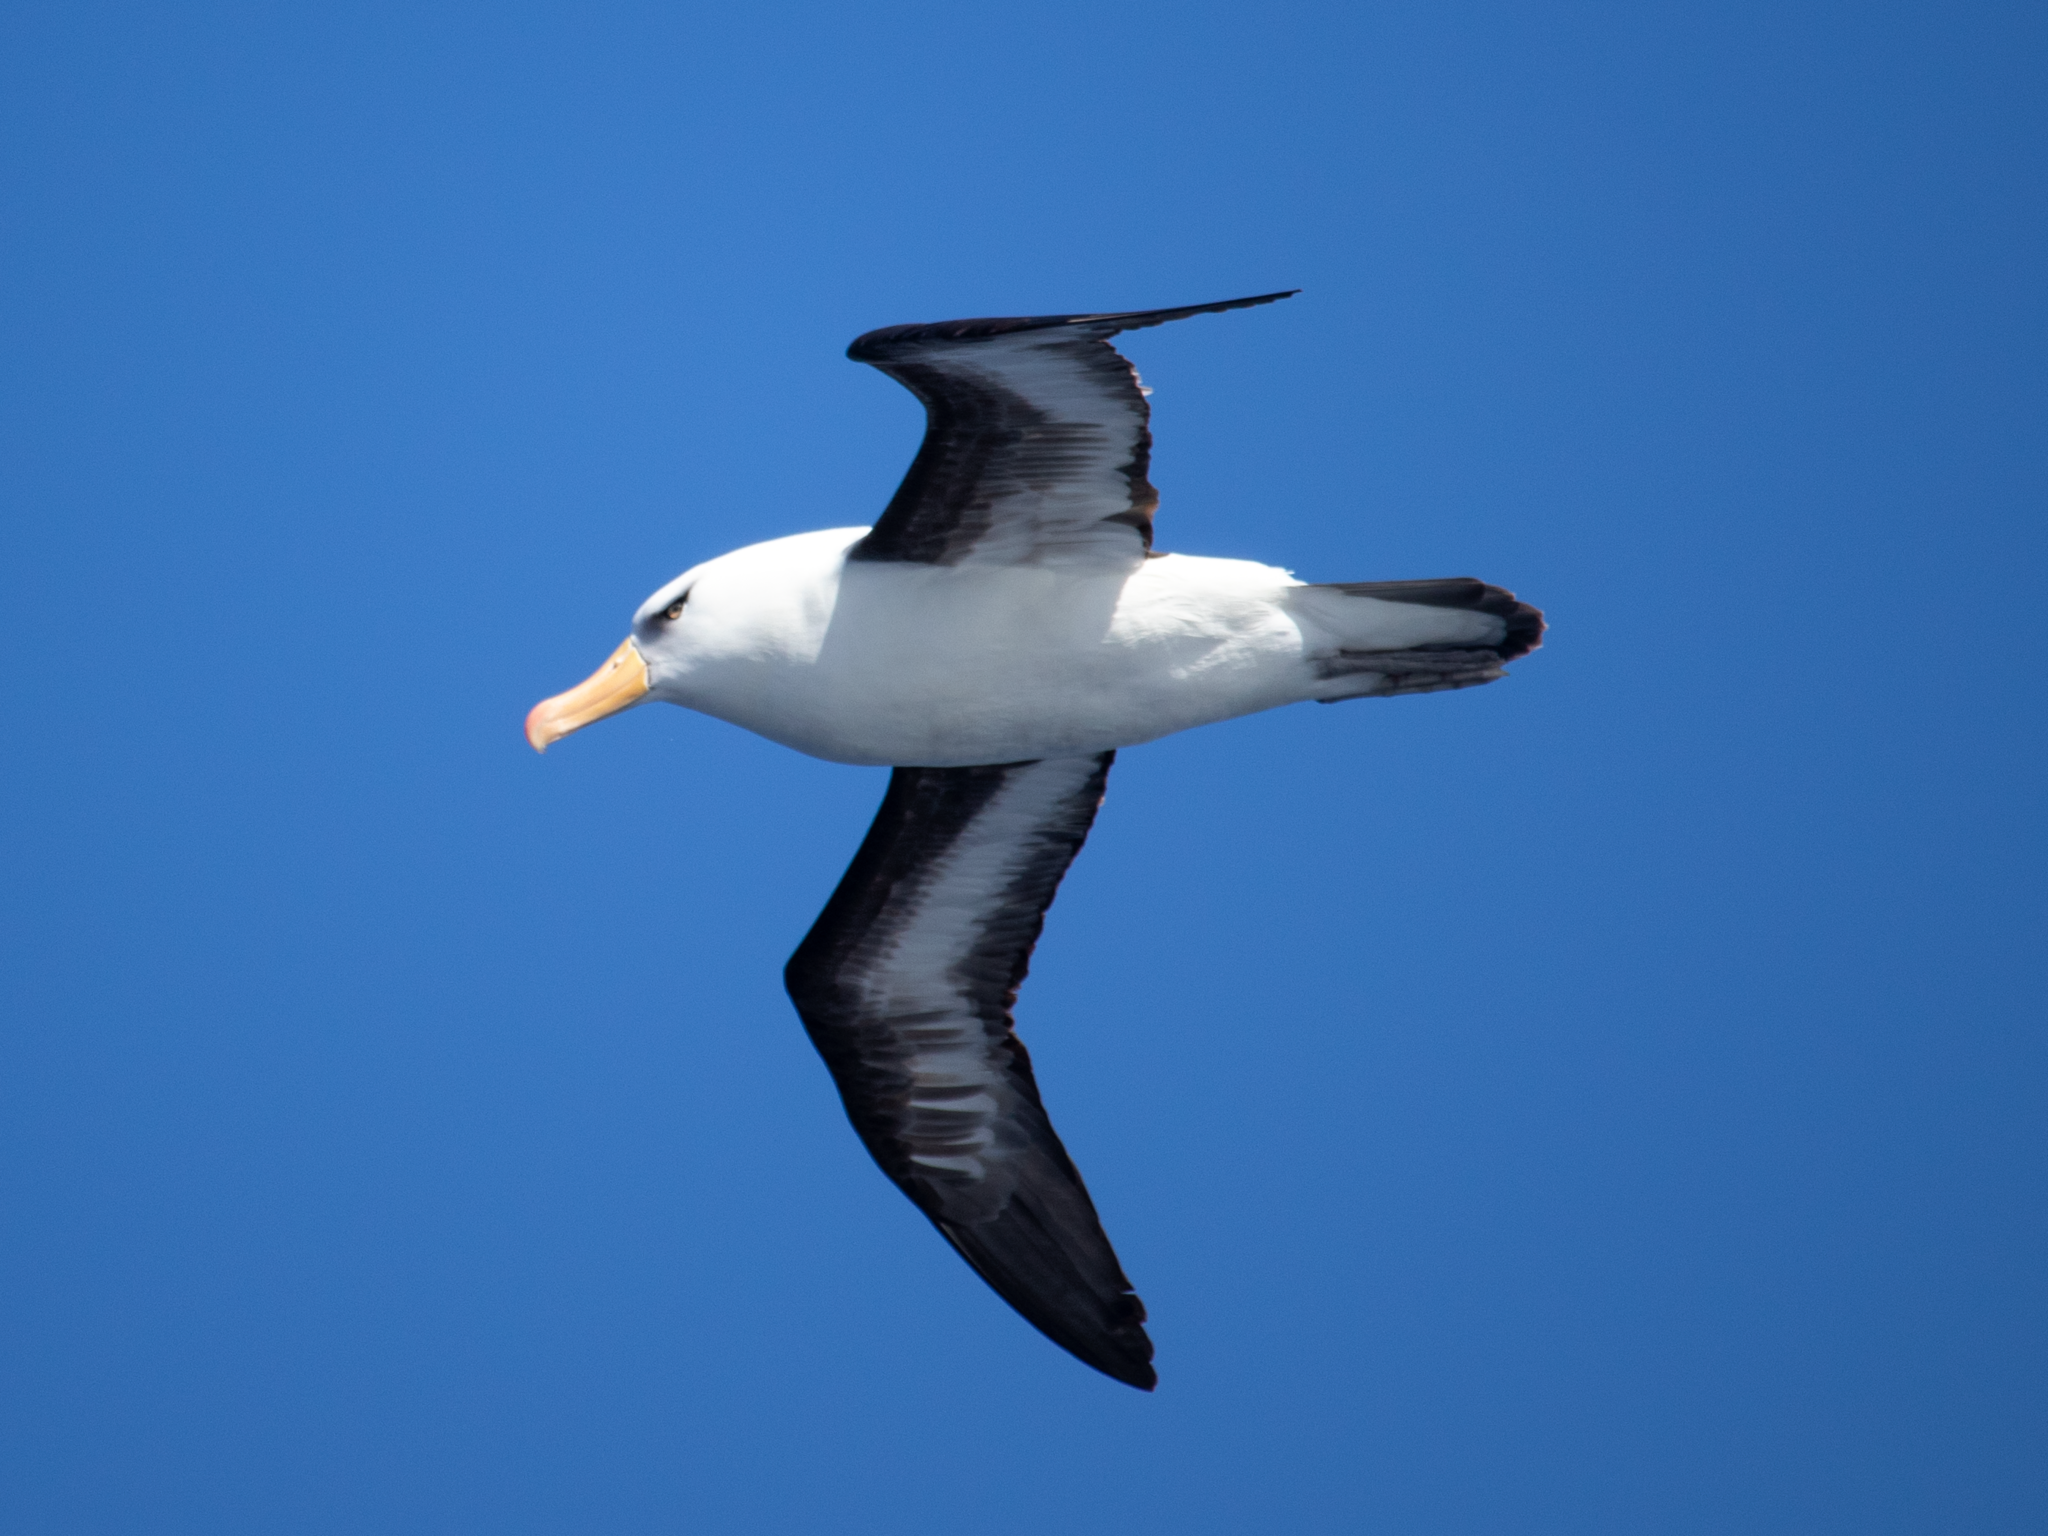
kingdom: Animalia
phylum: Chordata
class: Aves
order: Procellariiformes
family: Diomedeidae
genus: Thalassarche
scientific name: Thalassarche impavida
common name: Campbell albatross
